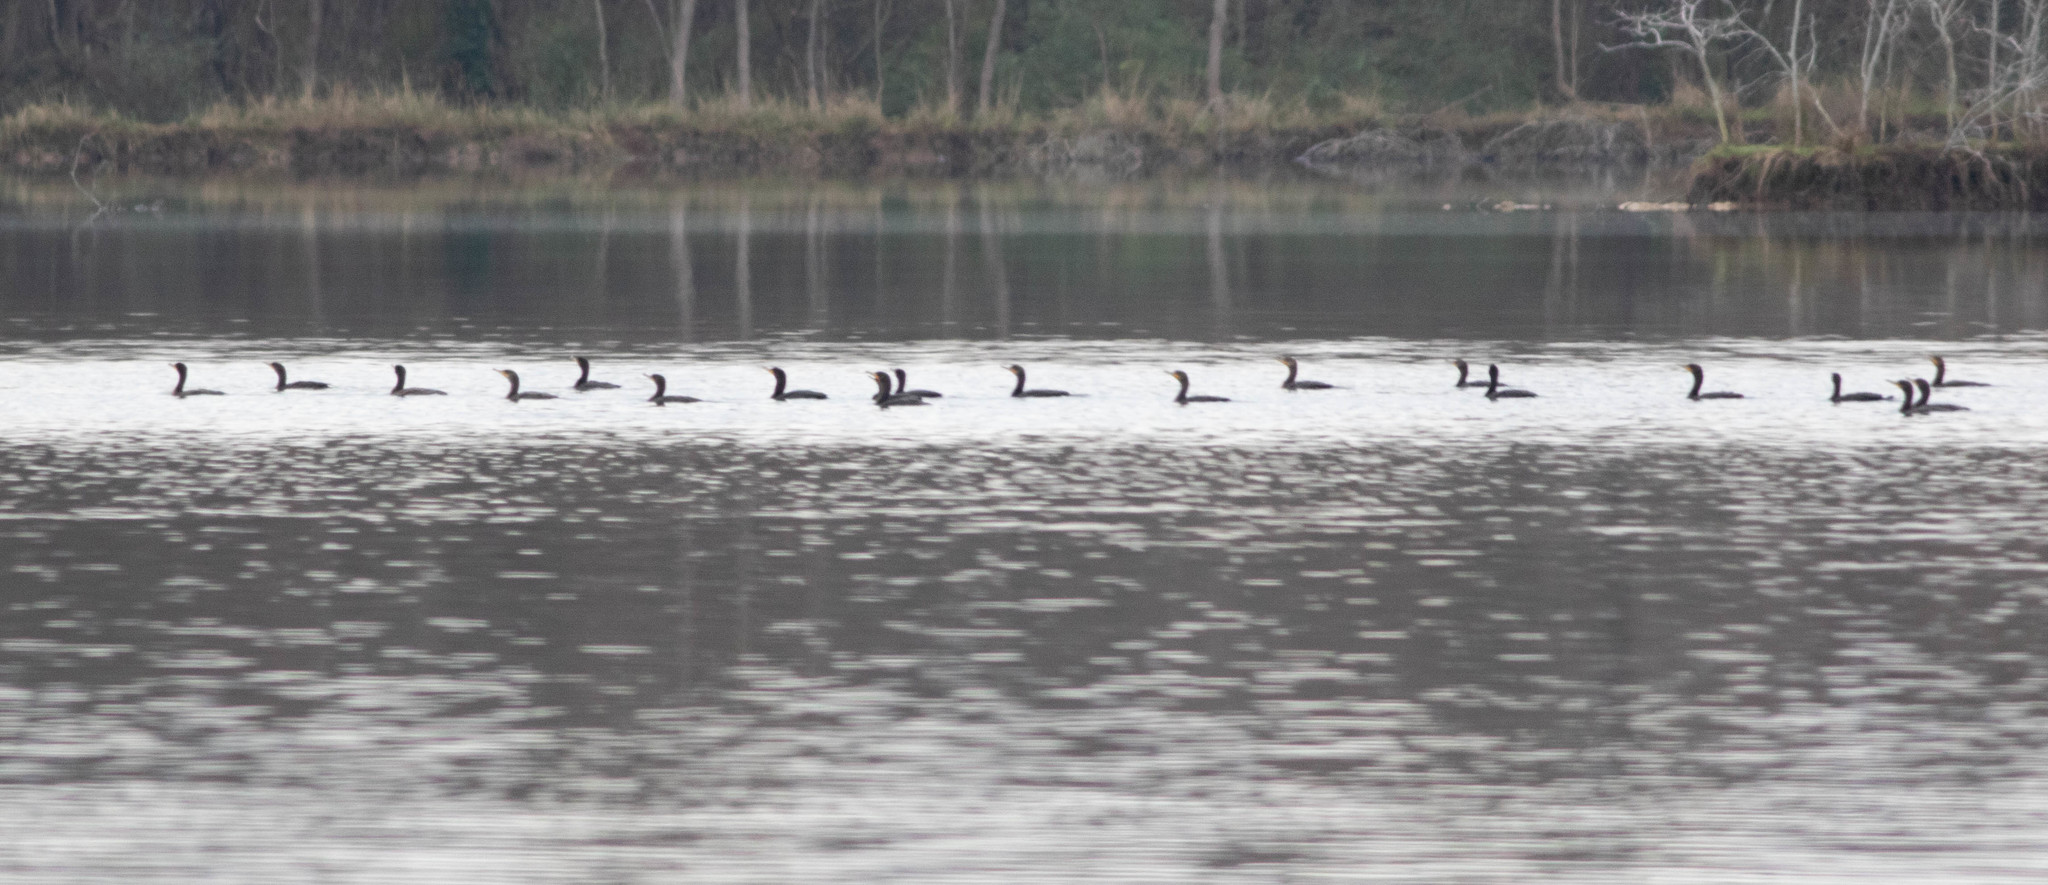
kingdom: Animalia
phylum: Chordata
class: Aves
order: Suliformes
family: Phalacrocoracidae
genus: Phalacrocorax
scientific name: Phalacrocorax auritus
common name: Double-crested cormorant
